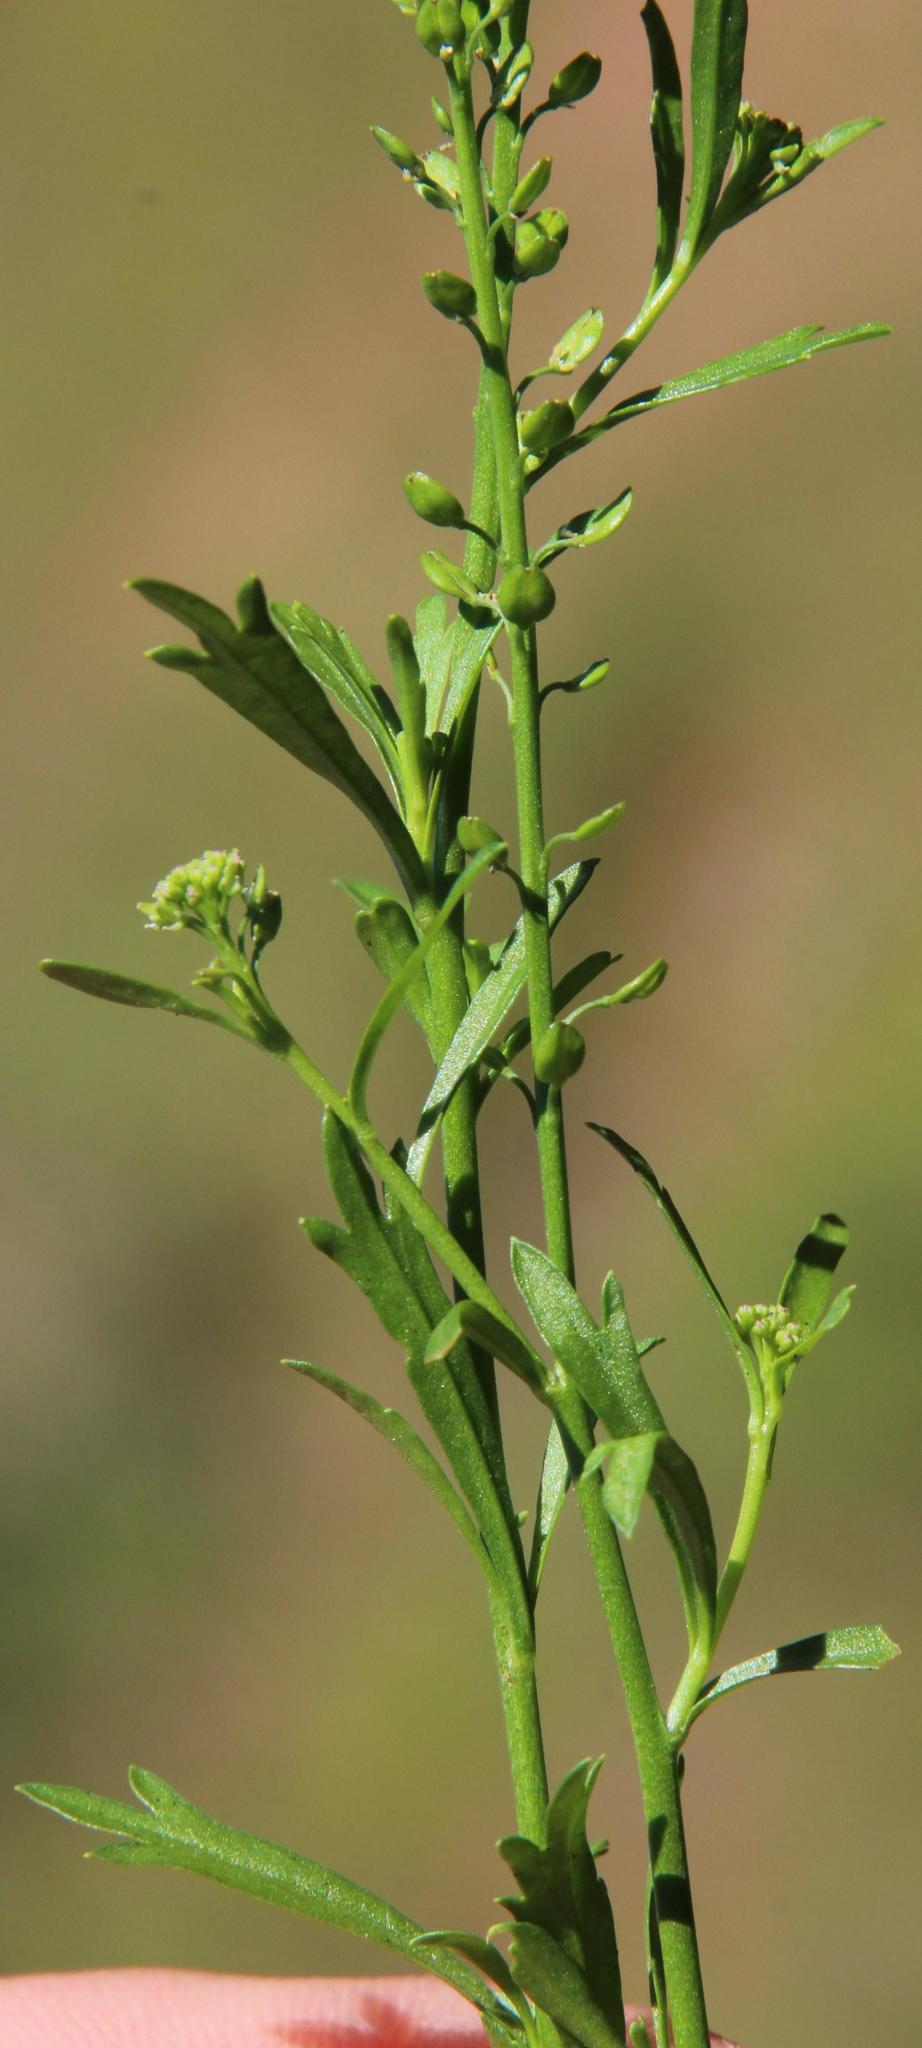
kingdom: Plantae
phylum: Tracheophyta
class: Magnoliopsida
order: Brassicales
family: Brassicaceae
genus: Lepidium
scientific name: Lepidium trifurcum
